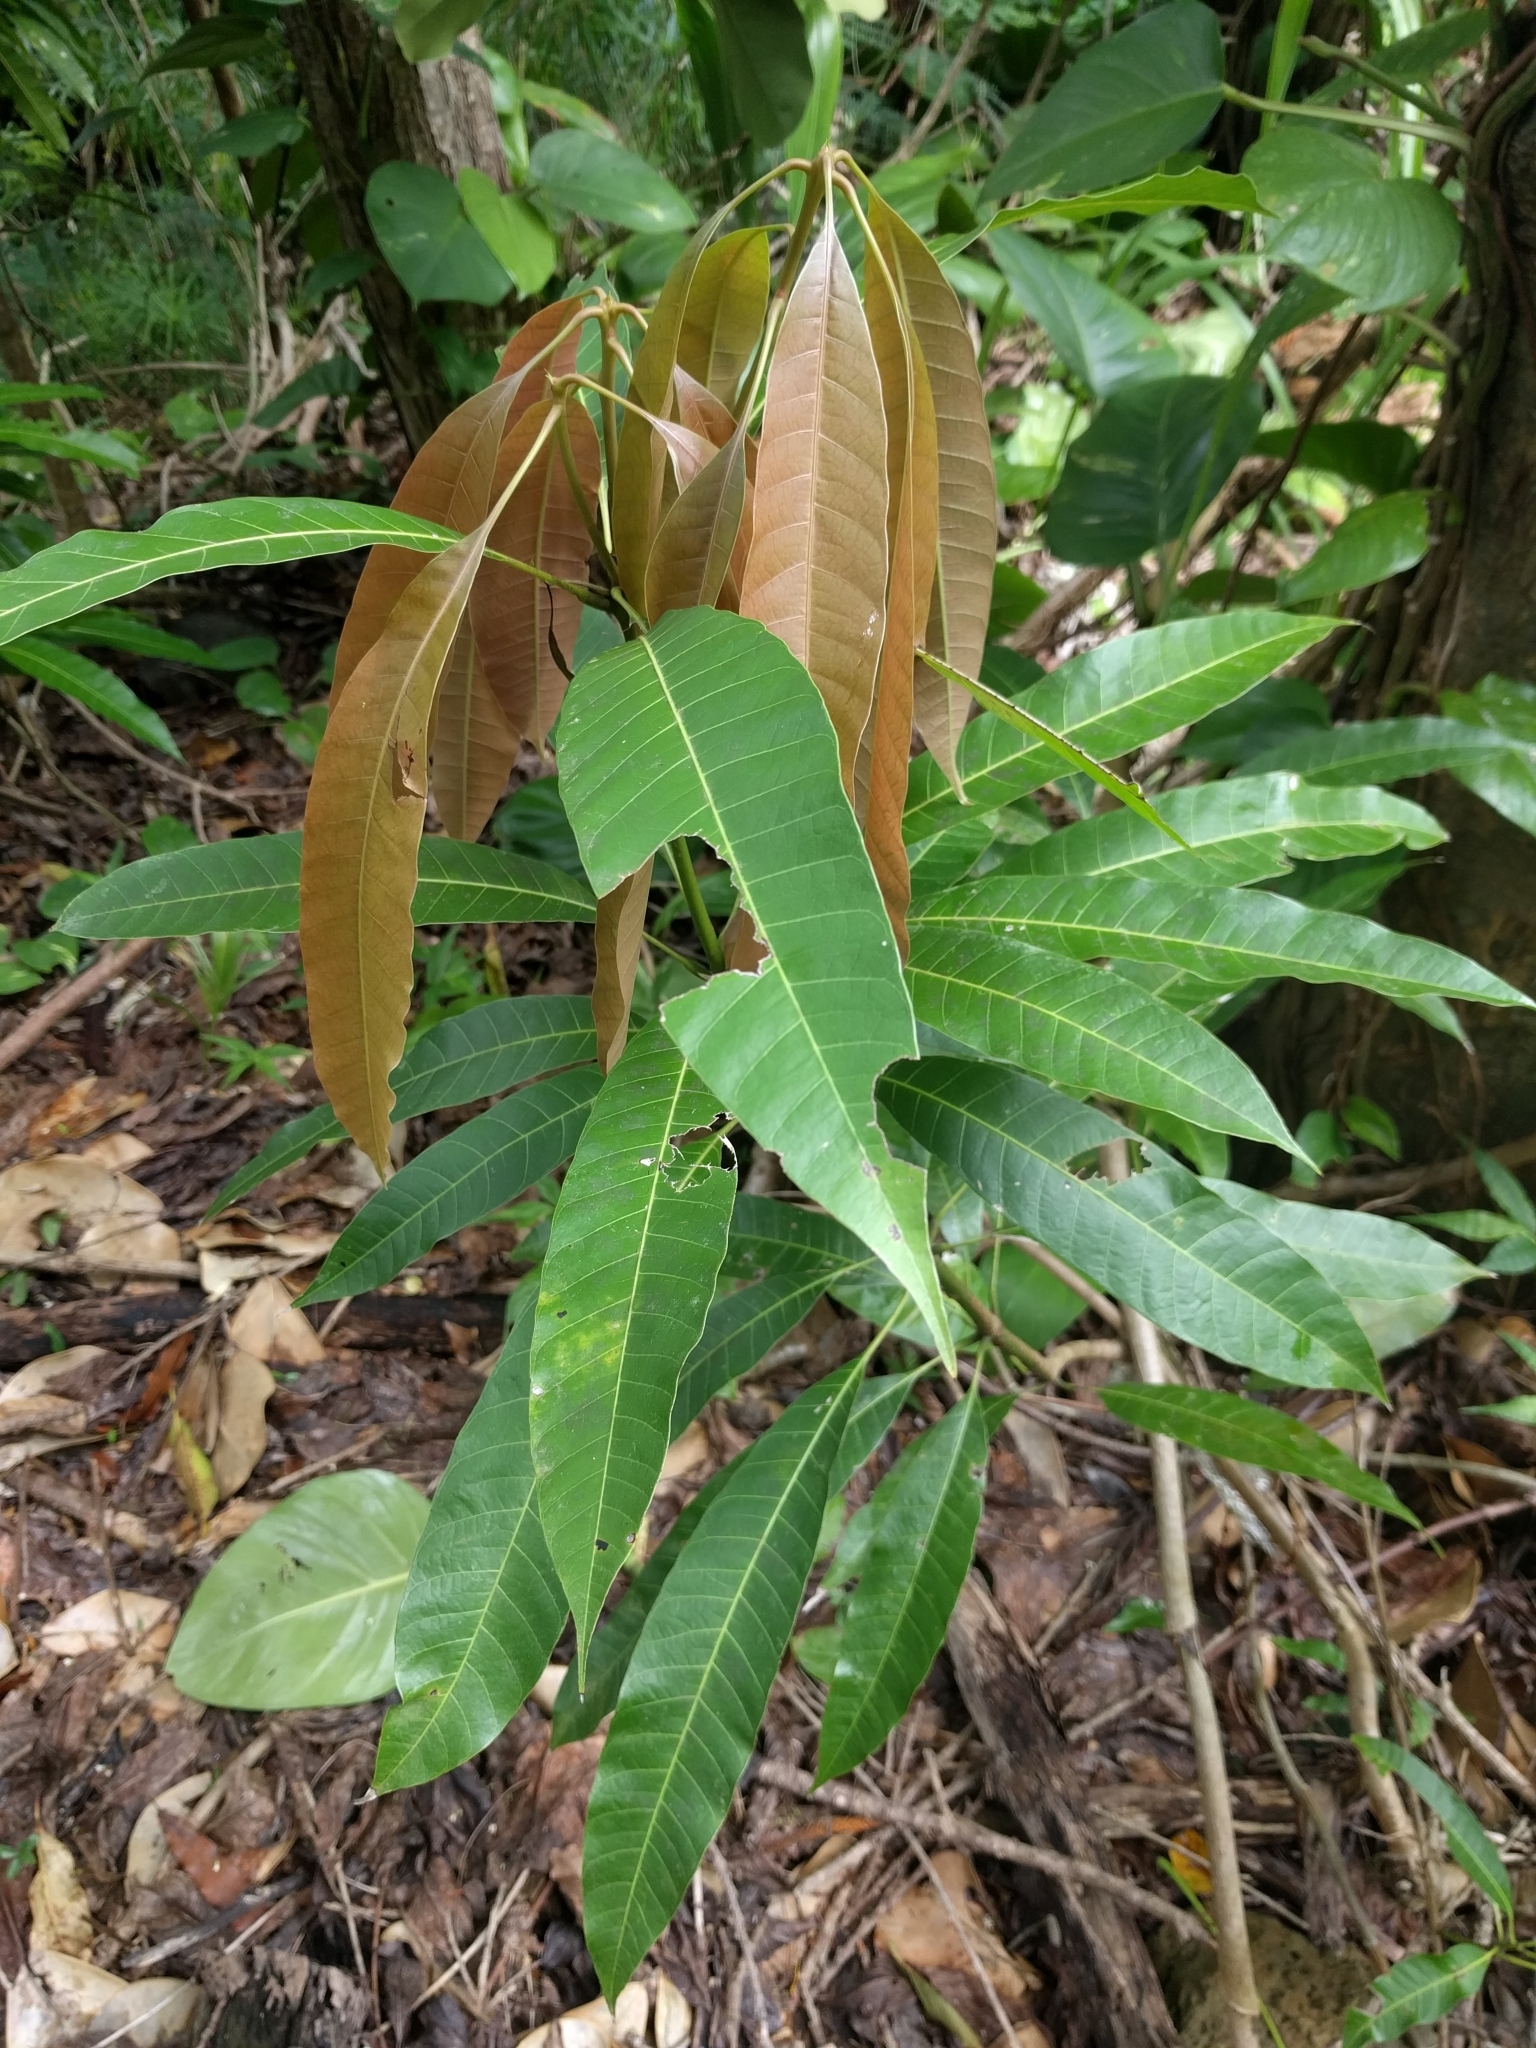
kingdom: Plantae
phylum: Tracheophyta
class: Magnoliopsida
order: Sapindales
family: Anacardiaceae
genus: Mangifera
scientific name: Mangifera indica
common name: Mango
